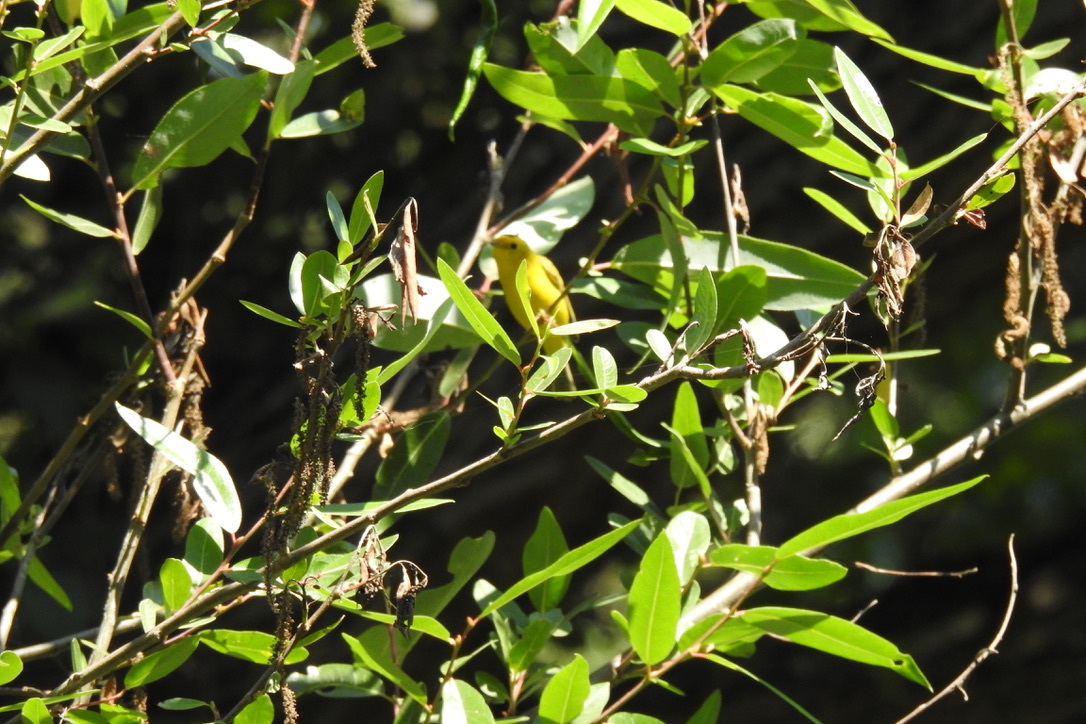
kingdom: Animalia
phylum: Chordata
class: Aves
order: Passeriformes
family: Parulidae
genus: Cardellina
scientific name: Cardellina pusilla
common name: Wilson's warbler
